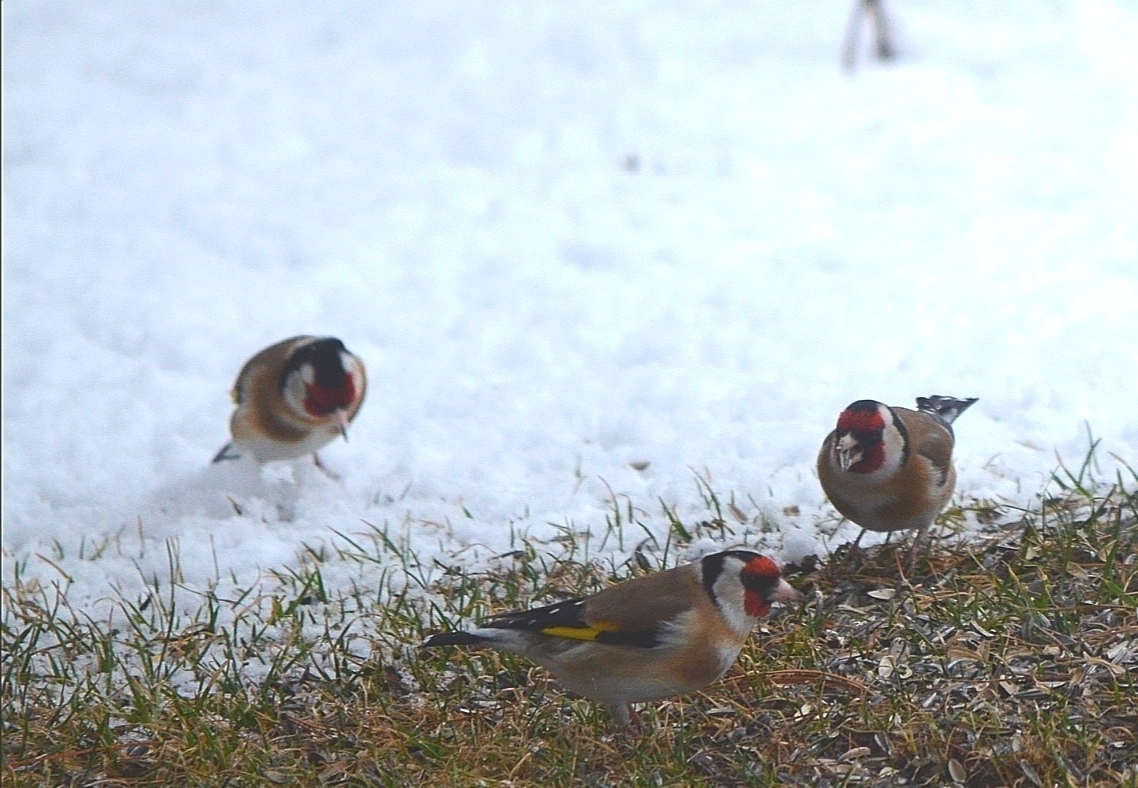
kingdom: Animalia
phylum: Chordata
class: Aves
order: Passeriformes
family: Fringillidae
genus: Carduelis
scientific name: Carduelis carduelis
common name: European goldfinch
